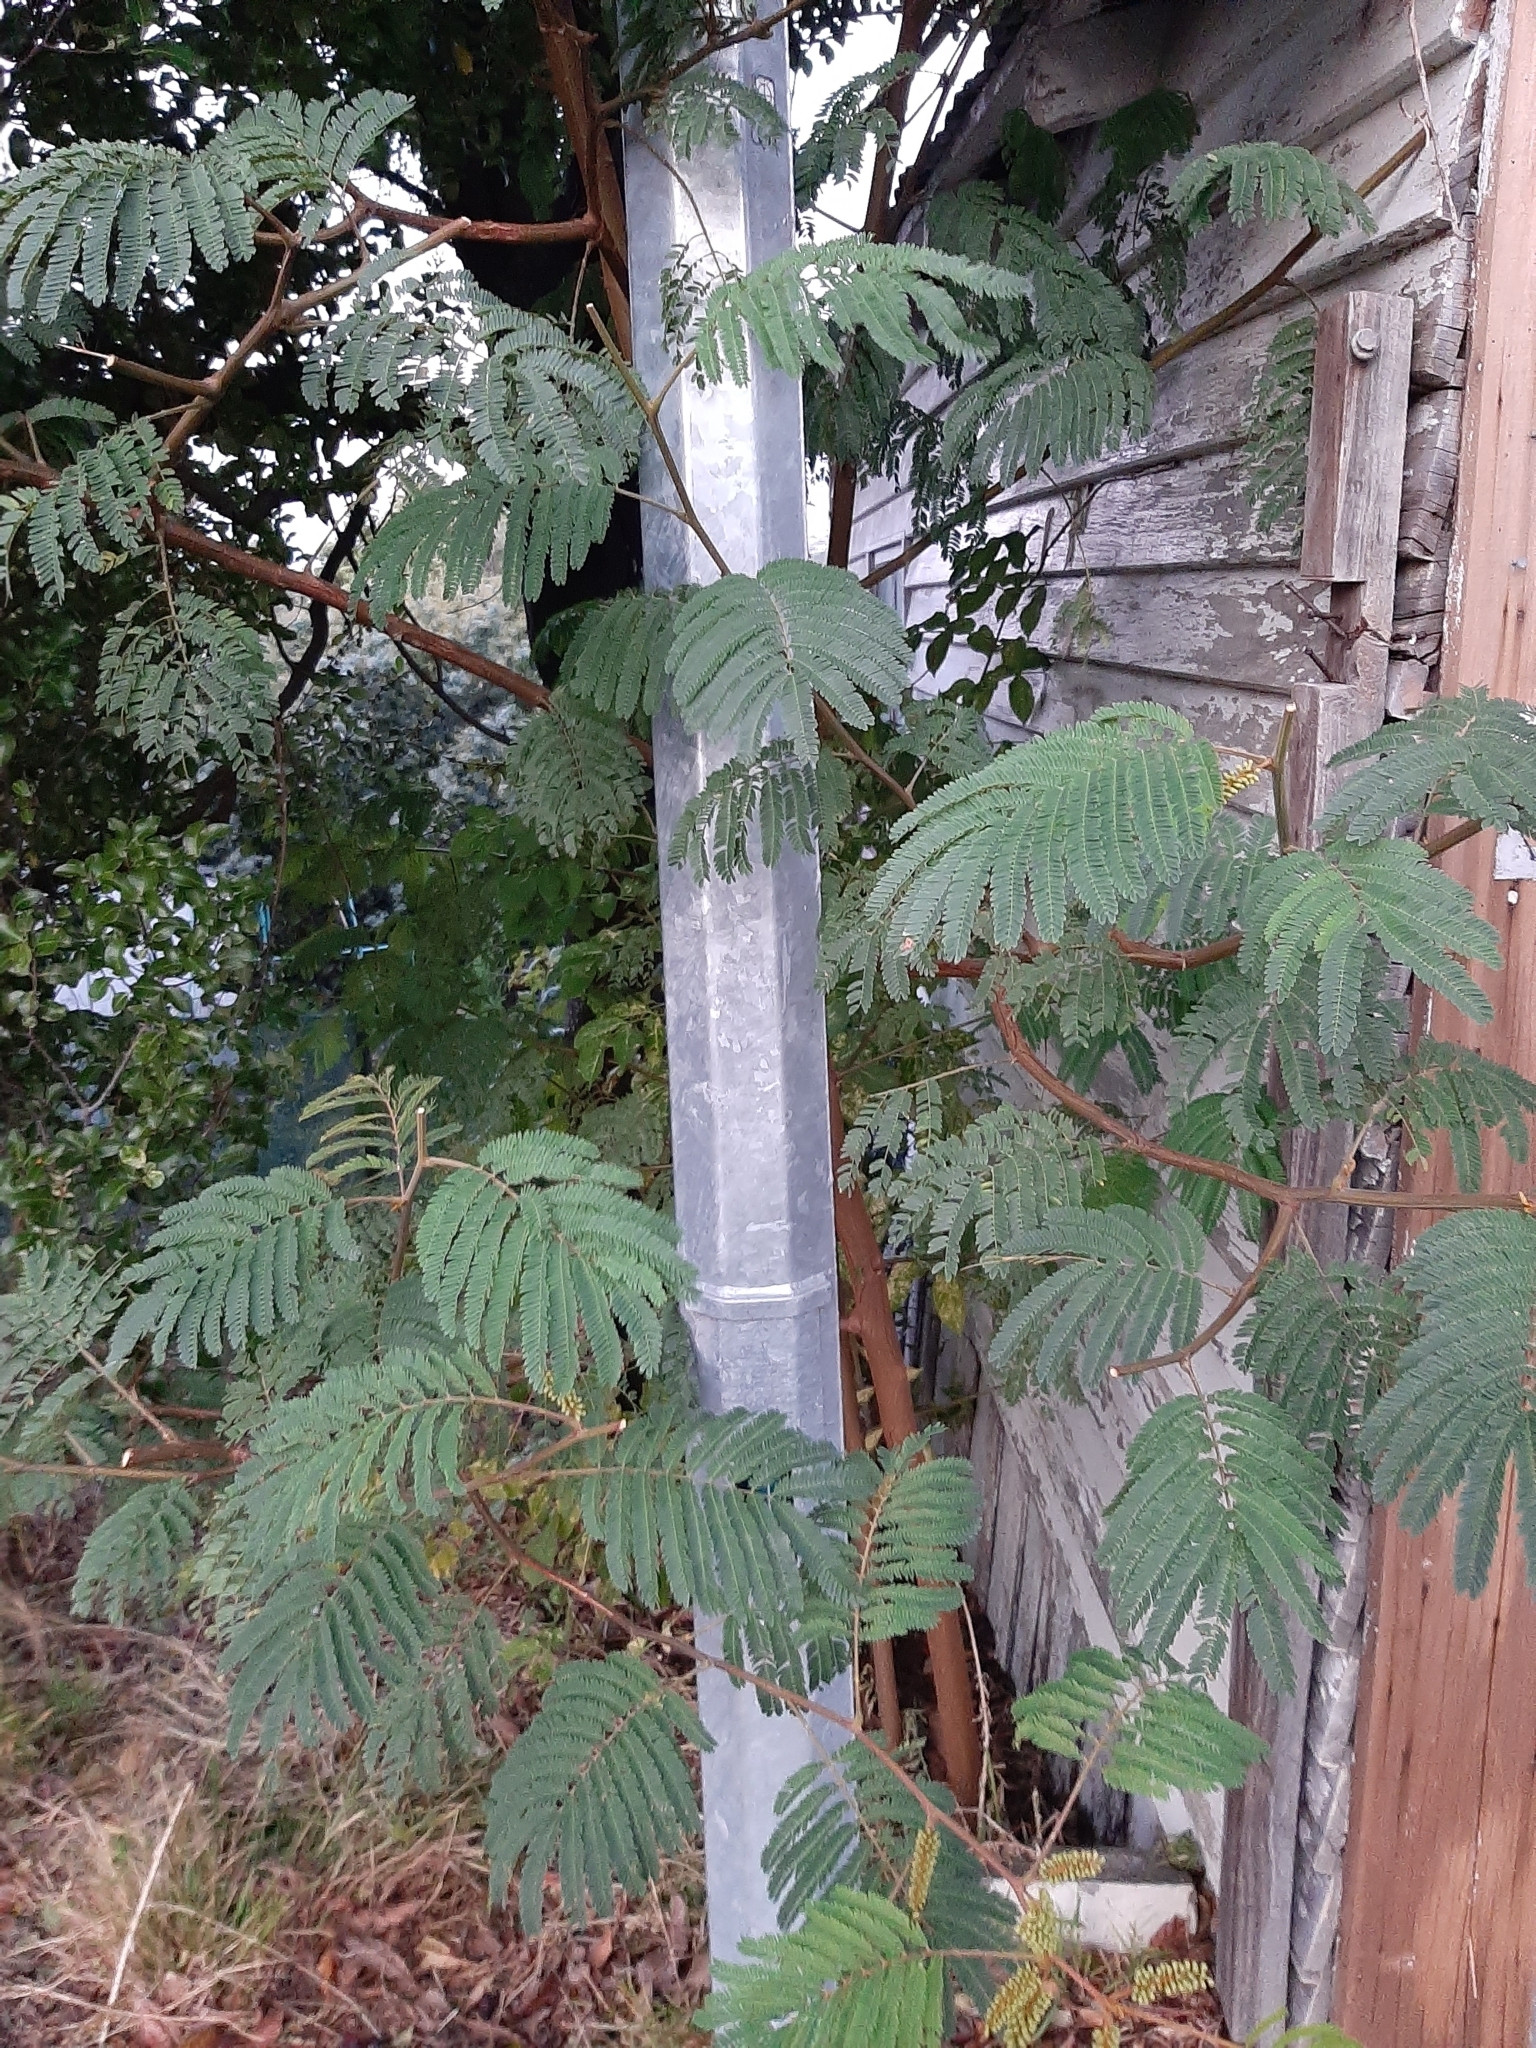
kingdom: Plantae
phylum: Tracheophyta
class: Magnoliopsida
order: Fabales
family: Fabaceae
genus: Paraserianthes
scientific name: Paraserianthes lophantha
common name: Plume albizia
